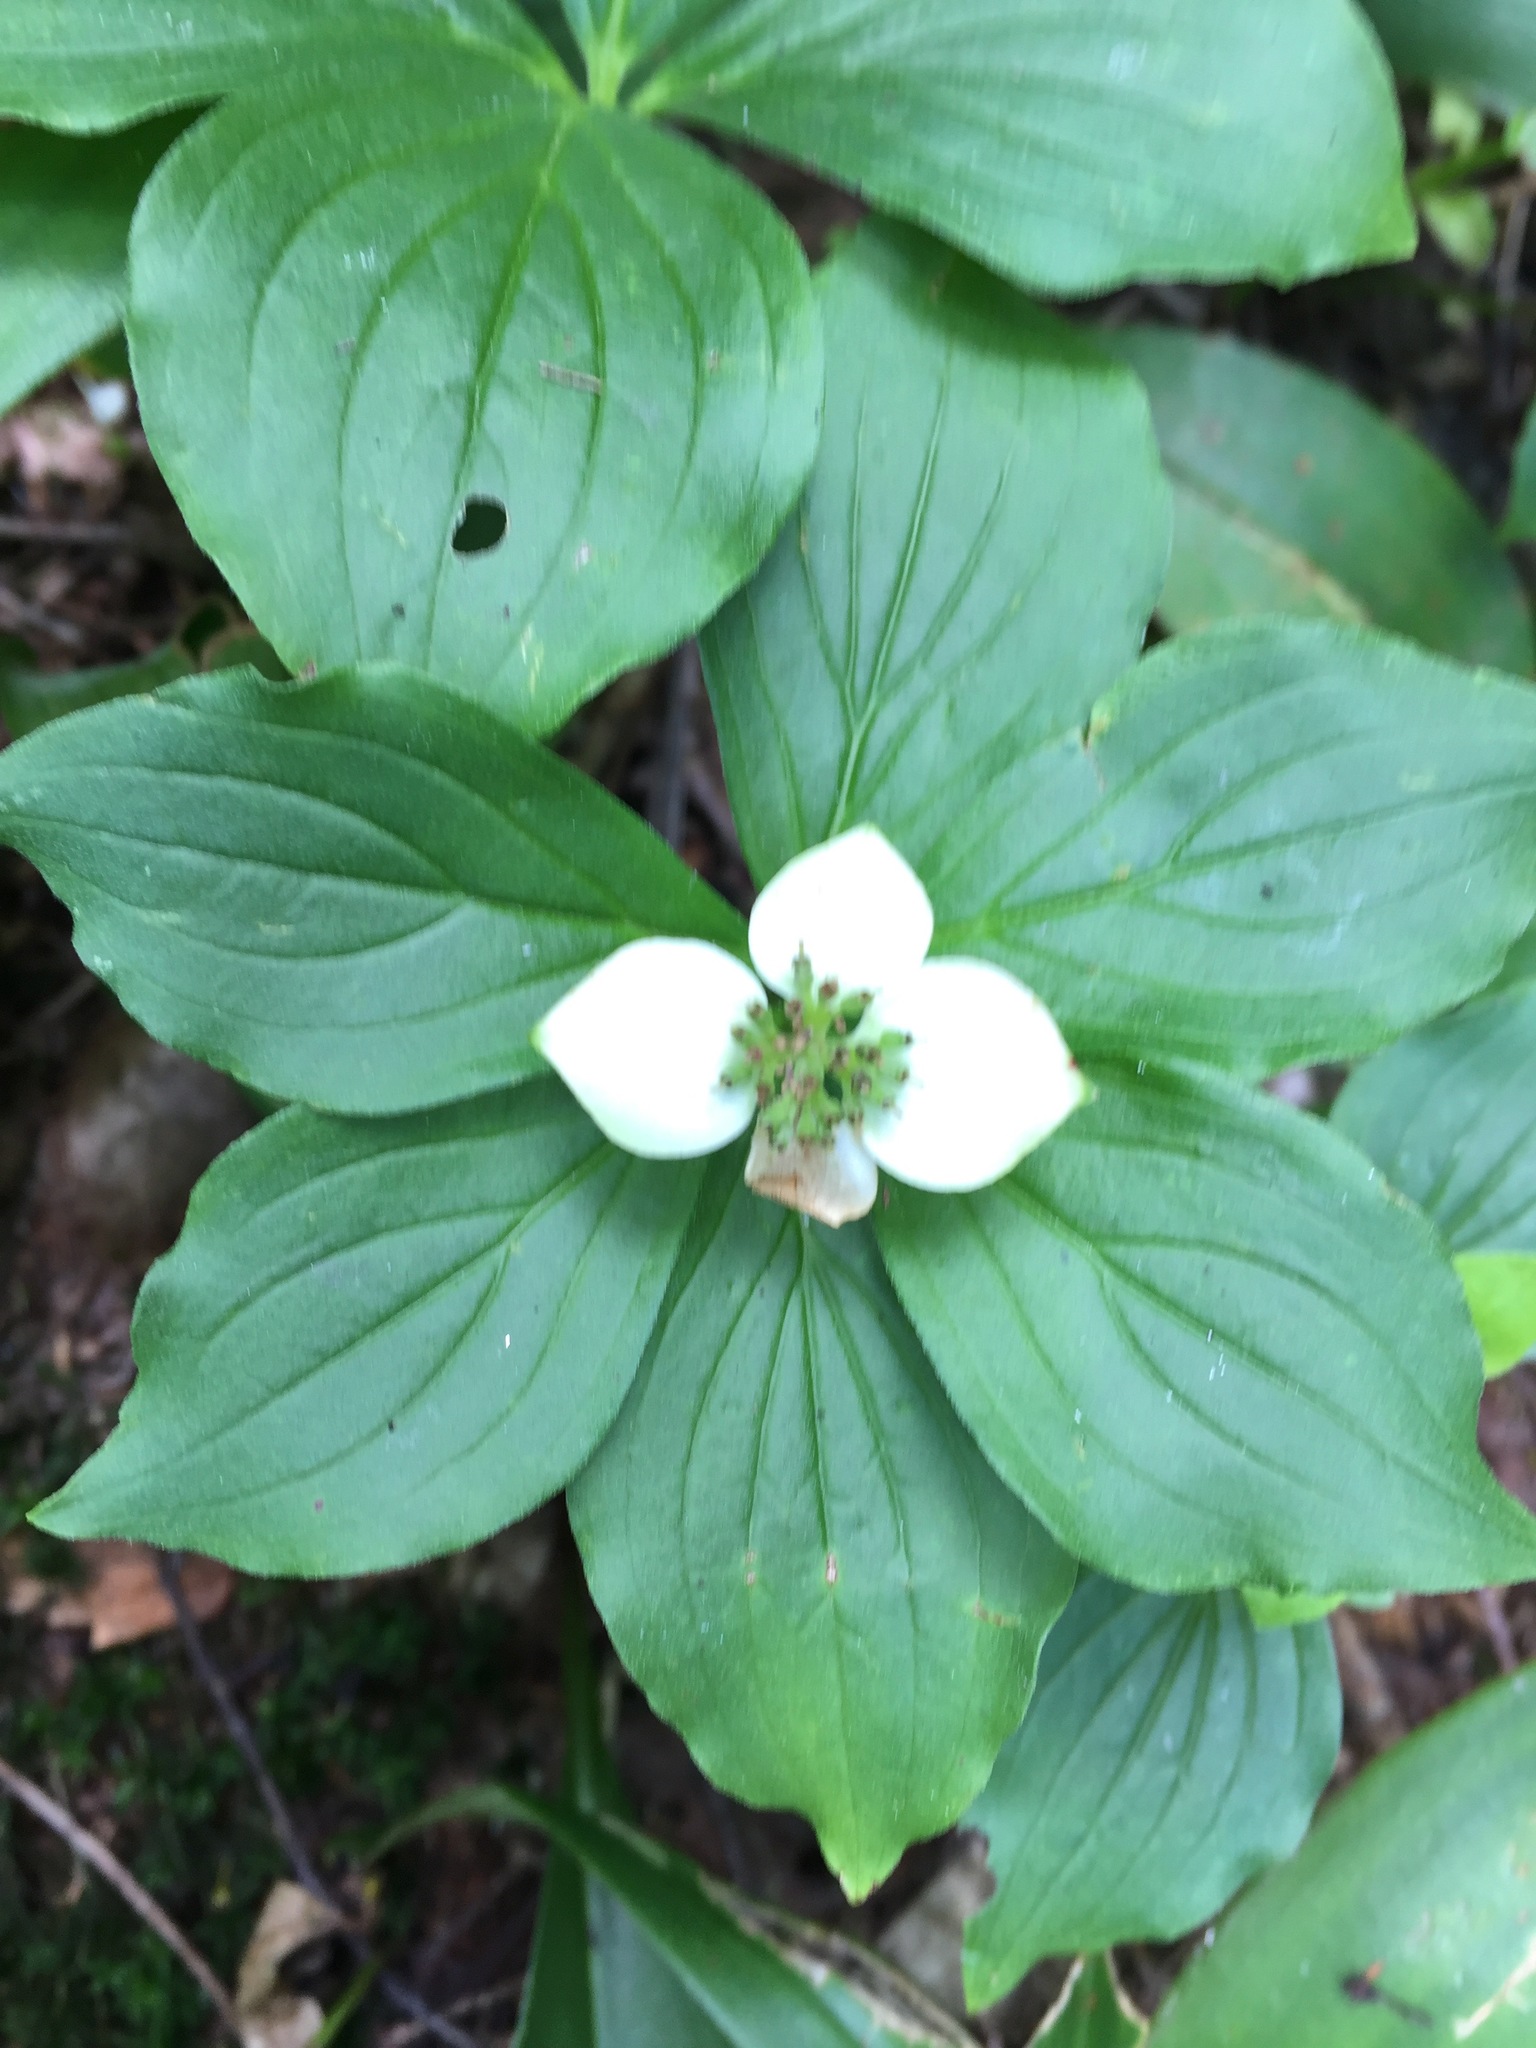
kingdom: Plantae
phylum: Tracheophyta
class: Magnoliopsida
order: Cornales
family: Cornaceae
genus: Cornus
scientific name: Cornus canadensis
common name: Creeping dogwood
